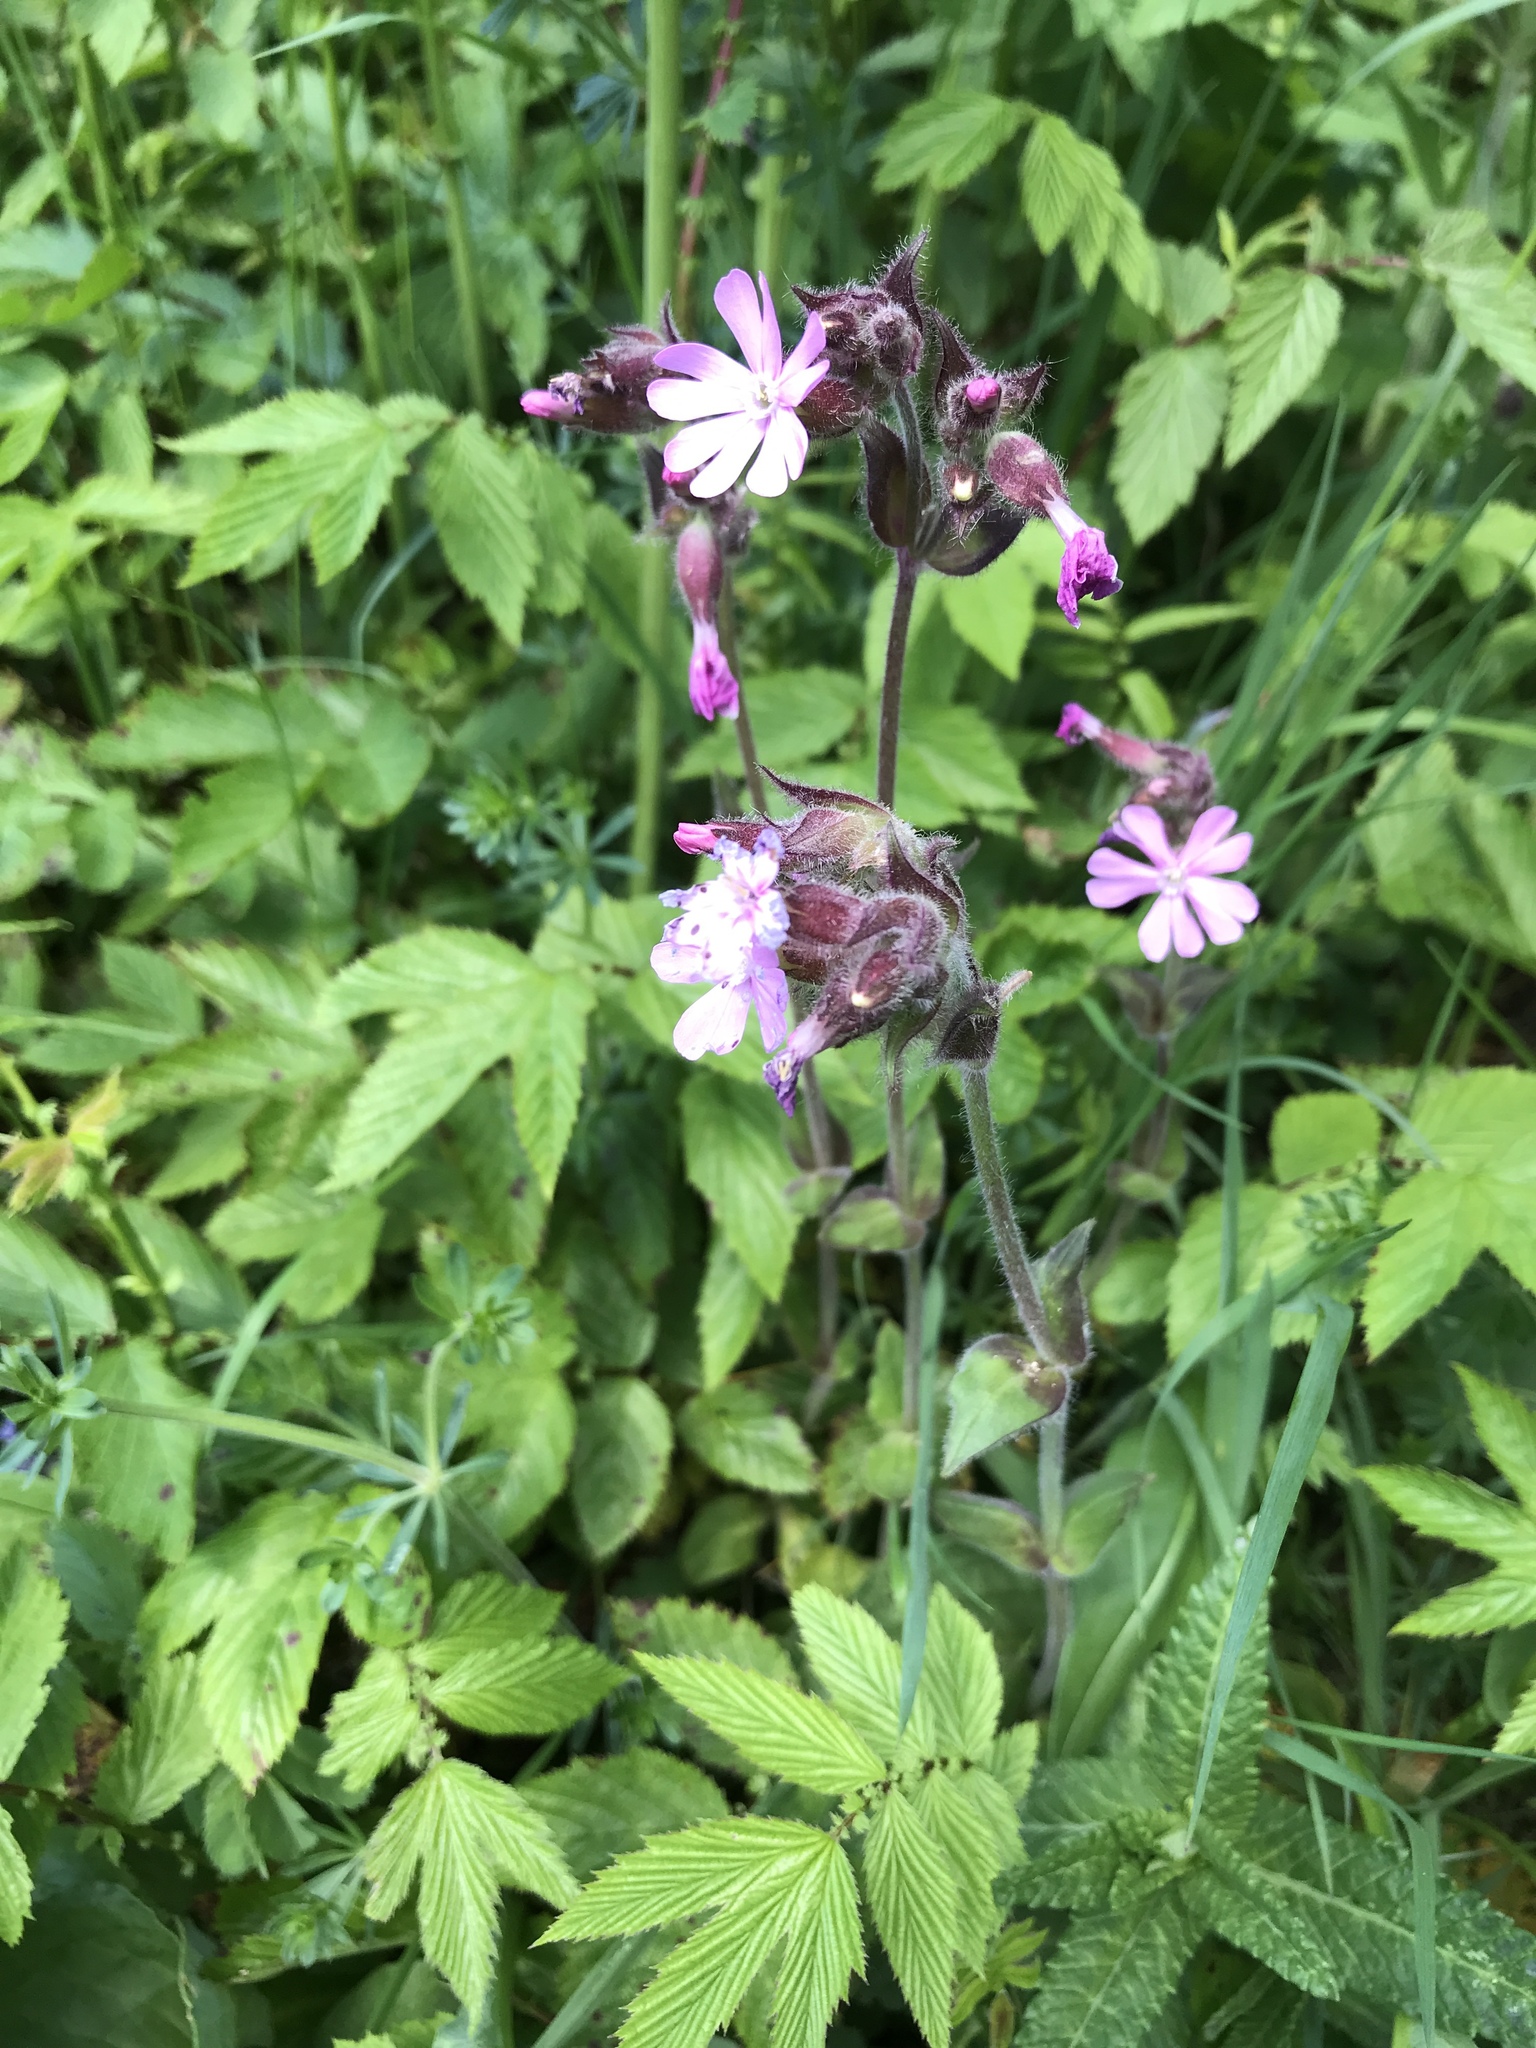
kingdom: Plantae
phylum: Tracheophyta
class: Magnoliopsida
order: Caryophyllales
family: Caryophyllaceae
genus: Silene
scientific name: Silene dioica
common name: Red campion
